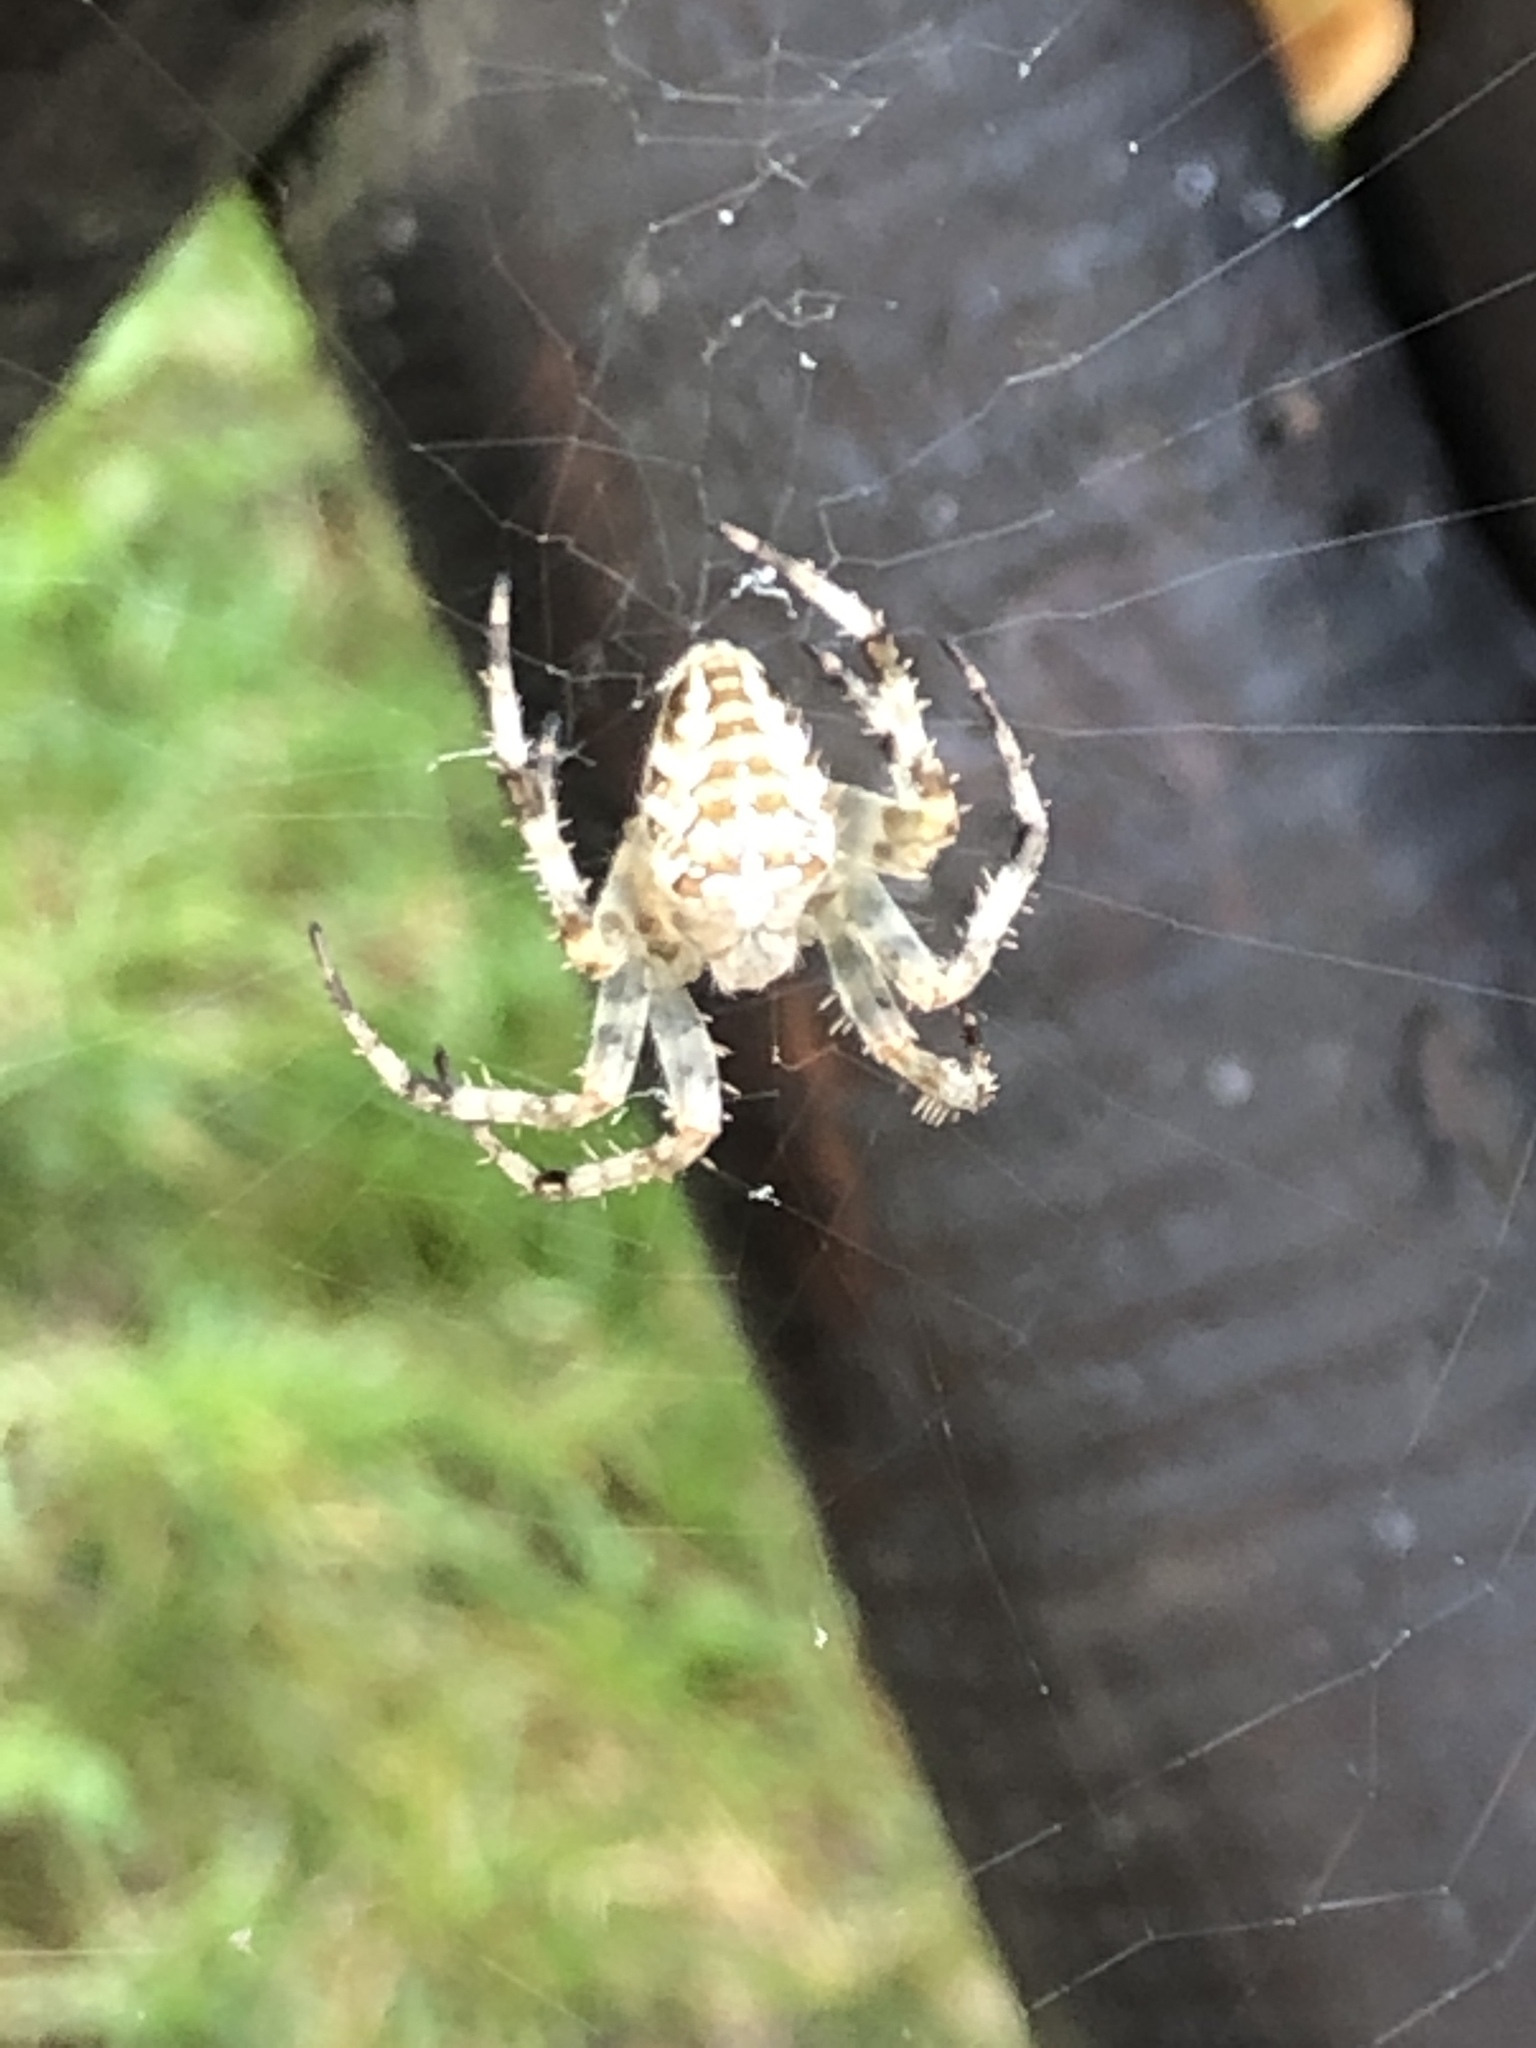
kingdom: Animalia
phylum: Arthropoda
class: Arachnida
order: Araneae
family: Araneidae
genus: Araneus
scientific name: Araneus diadematus
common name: Cross orbweaver
